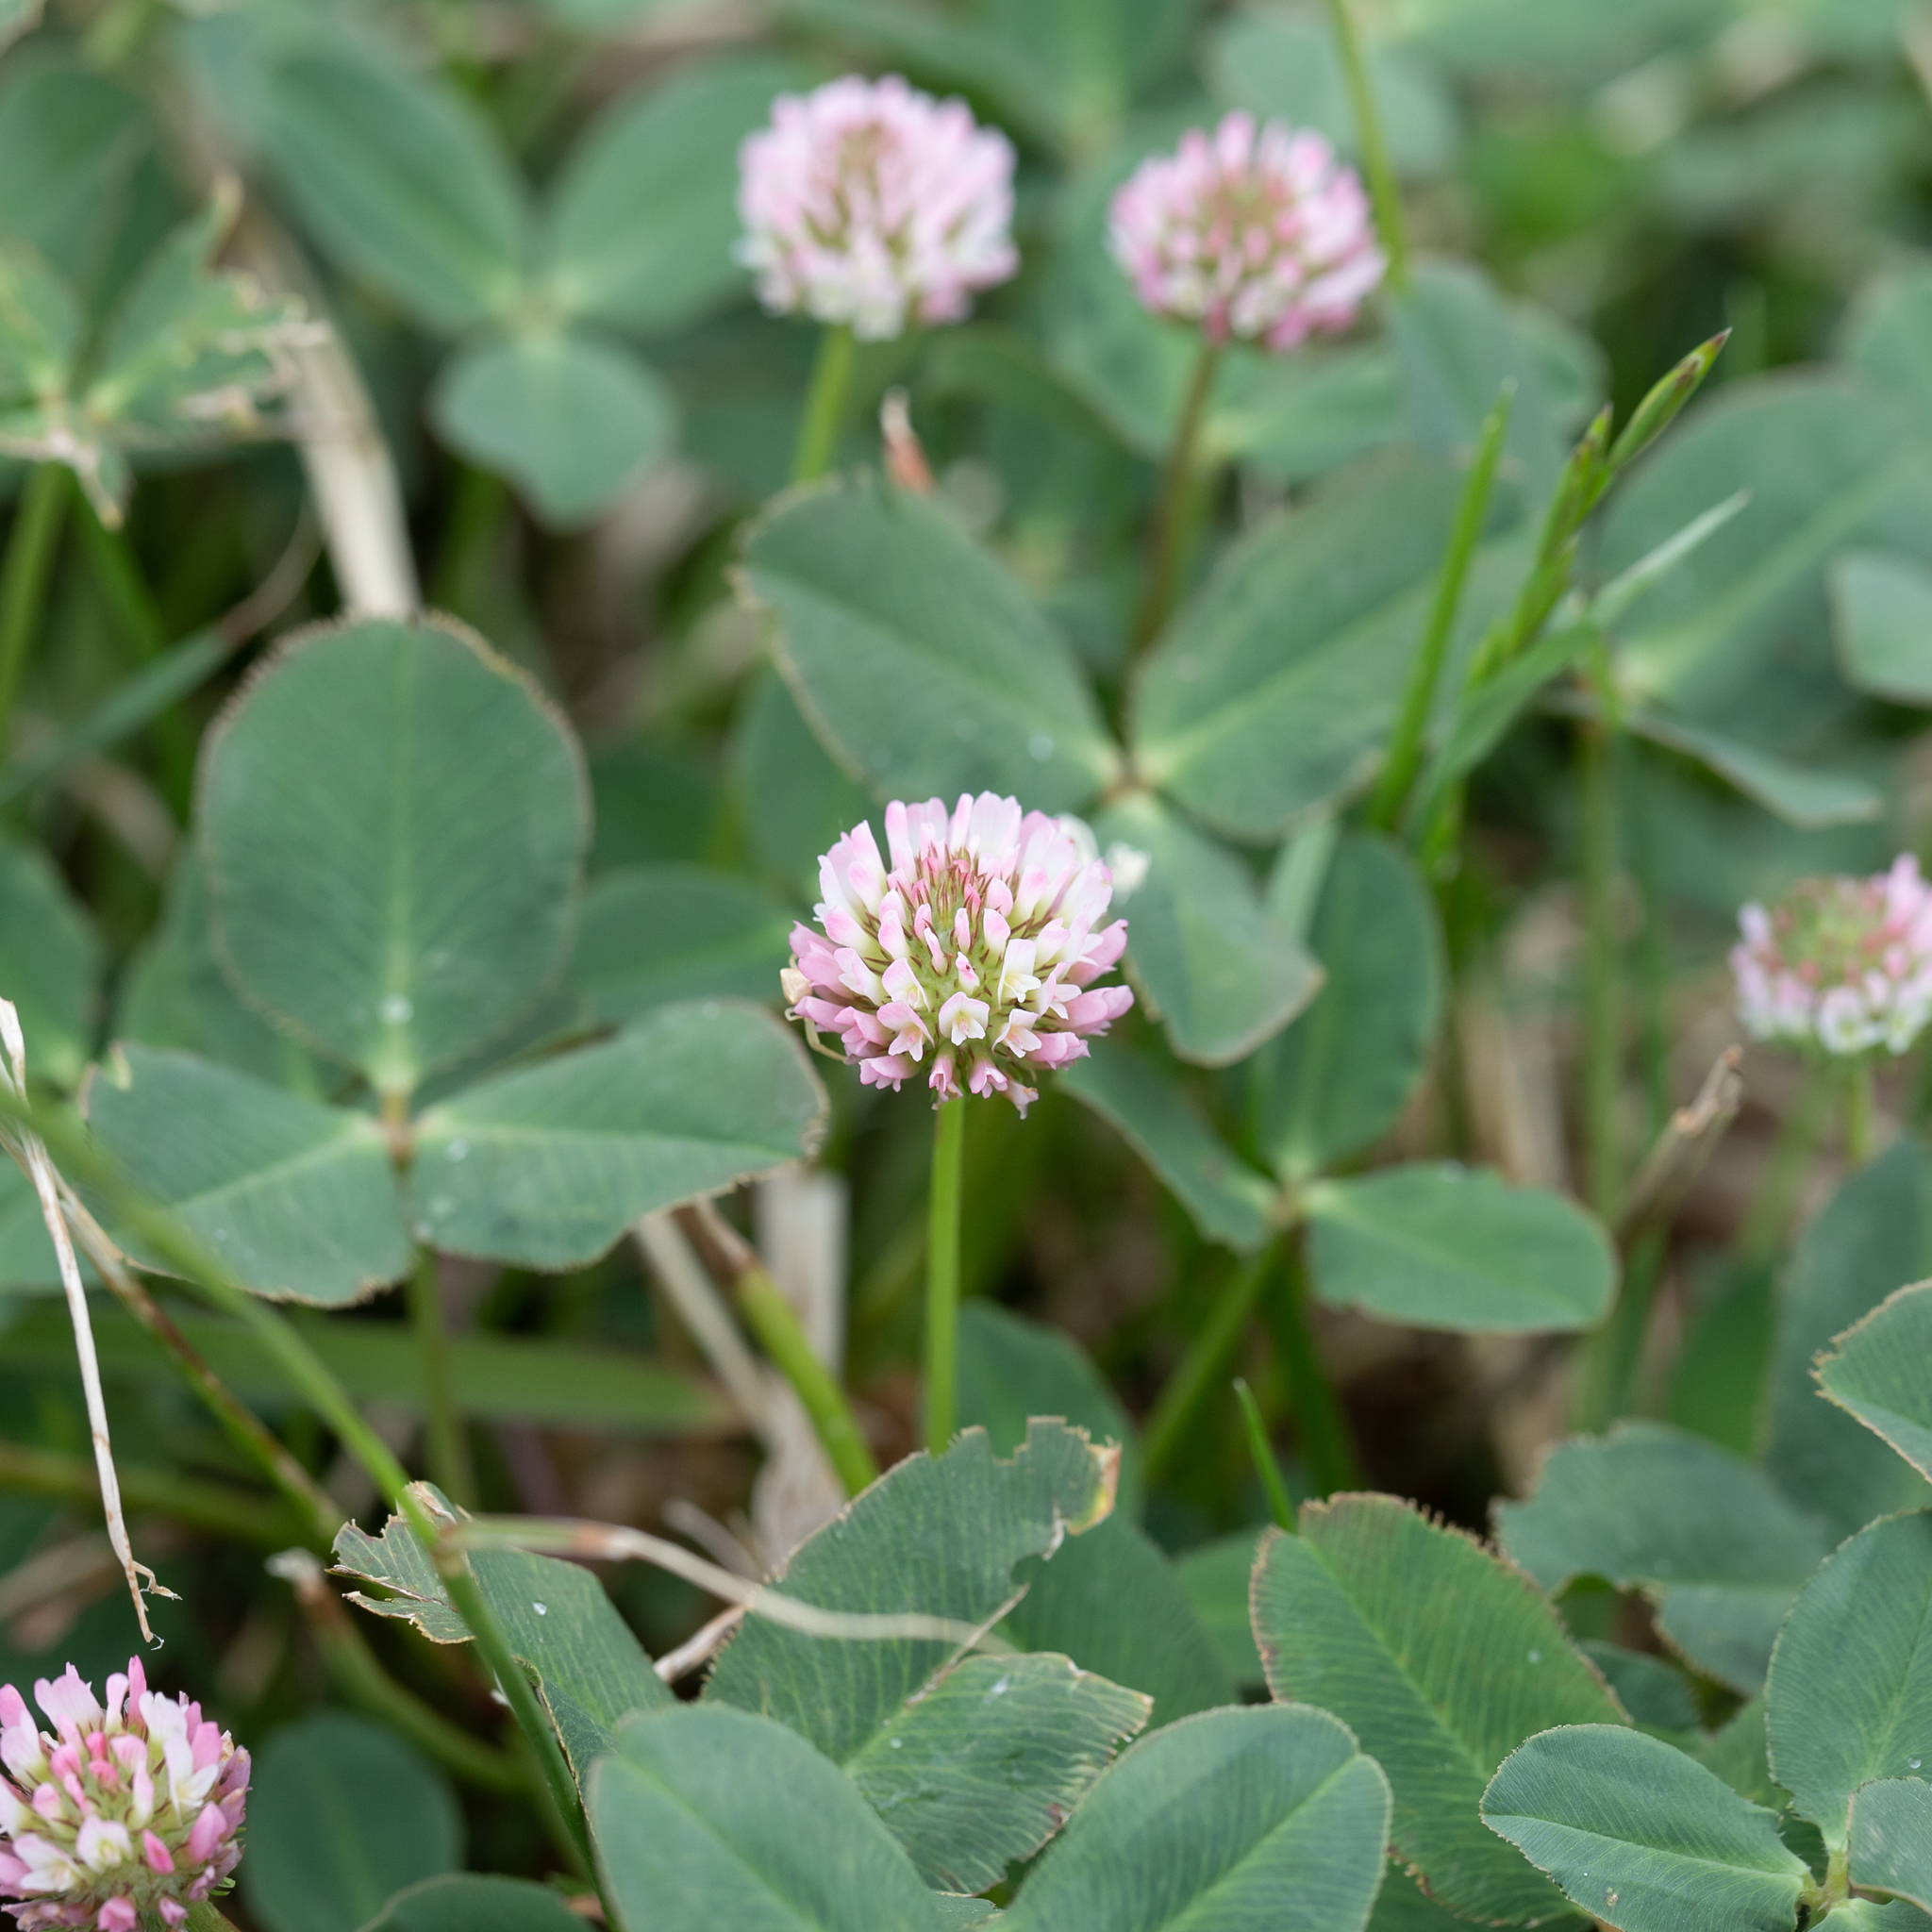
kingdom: Plantae
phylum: Tracheophyta
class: Magnoliopsida
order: Fabales
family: Fabaceae
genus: Trifolium
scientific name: Trifolium fragiferum
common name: Strawberry clover
